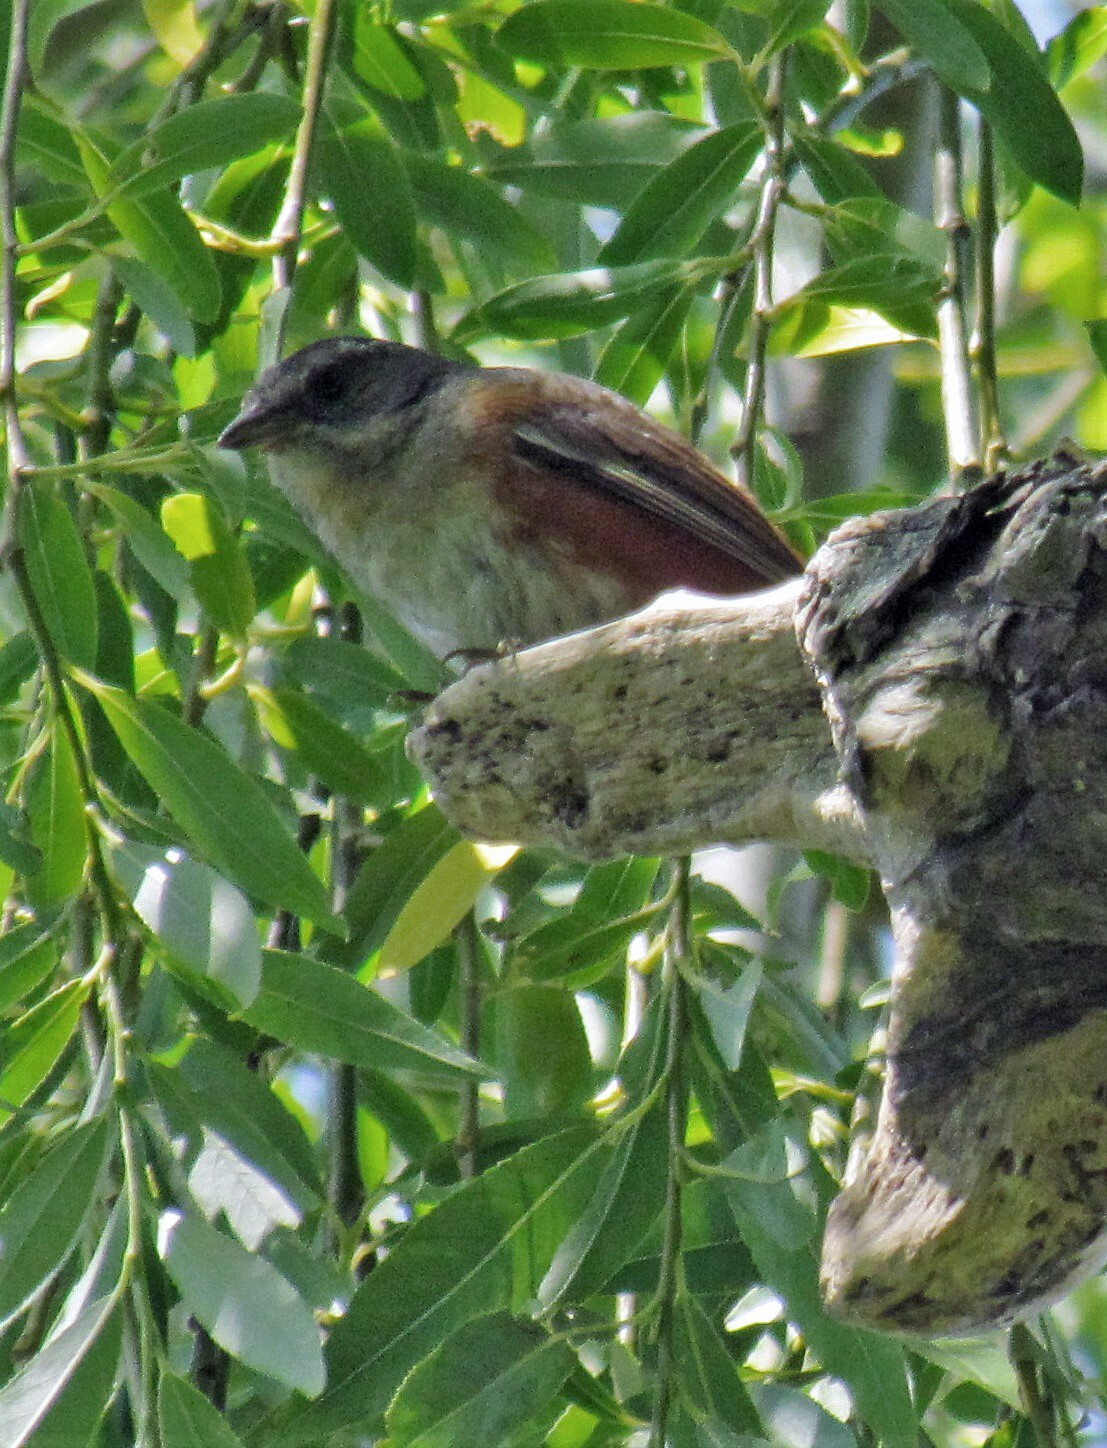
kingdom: Animalia
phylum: Chordata
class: Aves
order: Passeriformes
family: Thraupidae
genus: Microspingus
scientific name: Microspingus cabanisi
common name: Gray-throated warbling-finch
